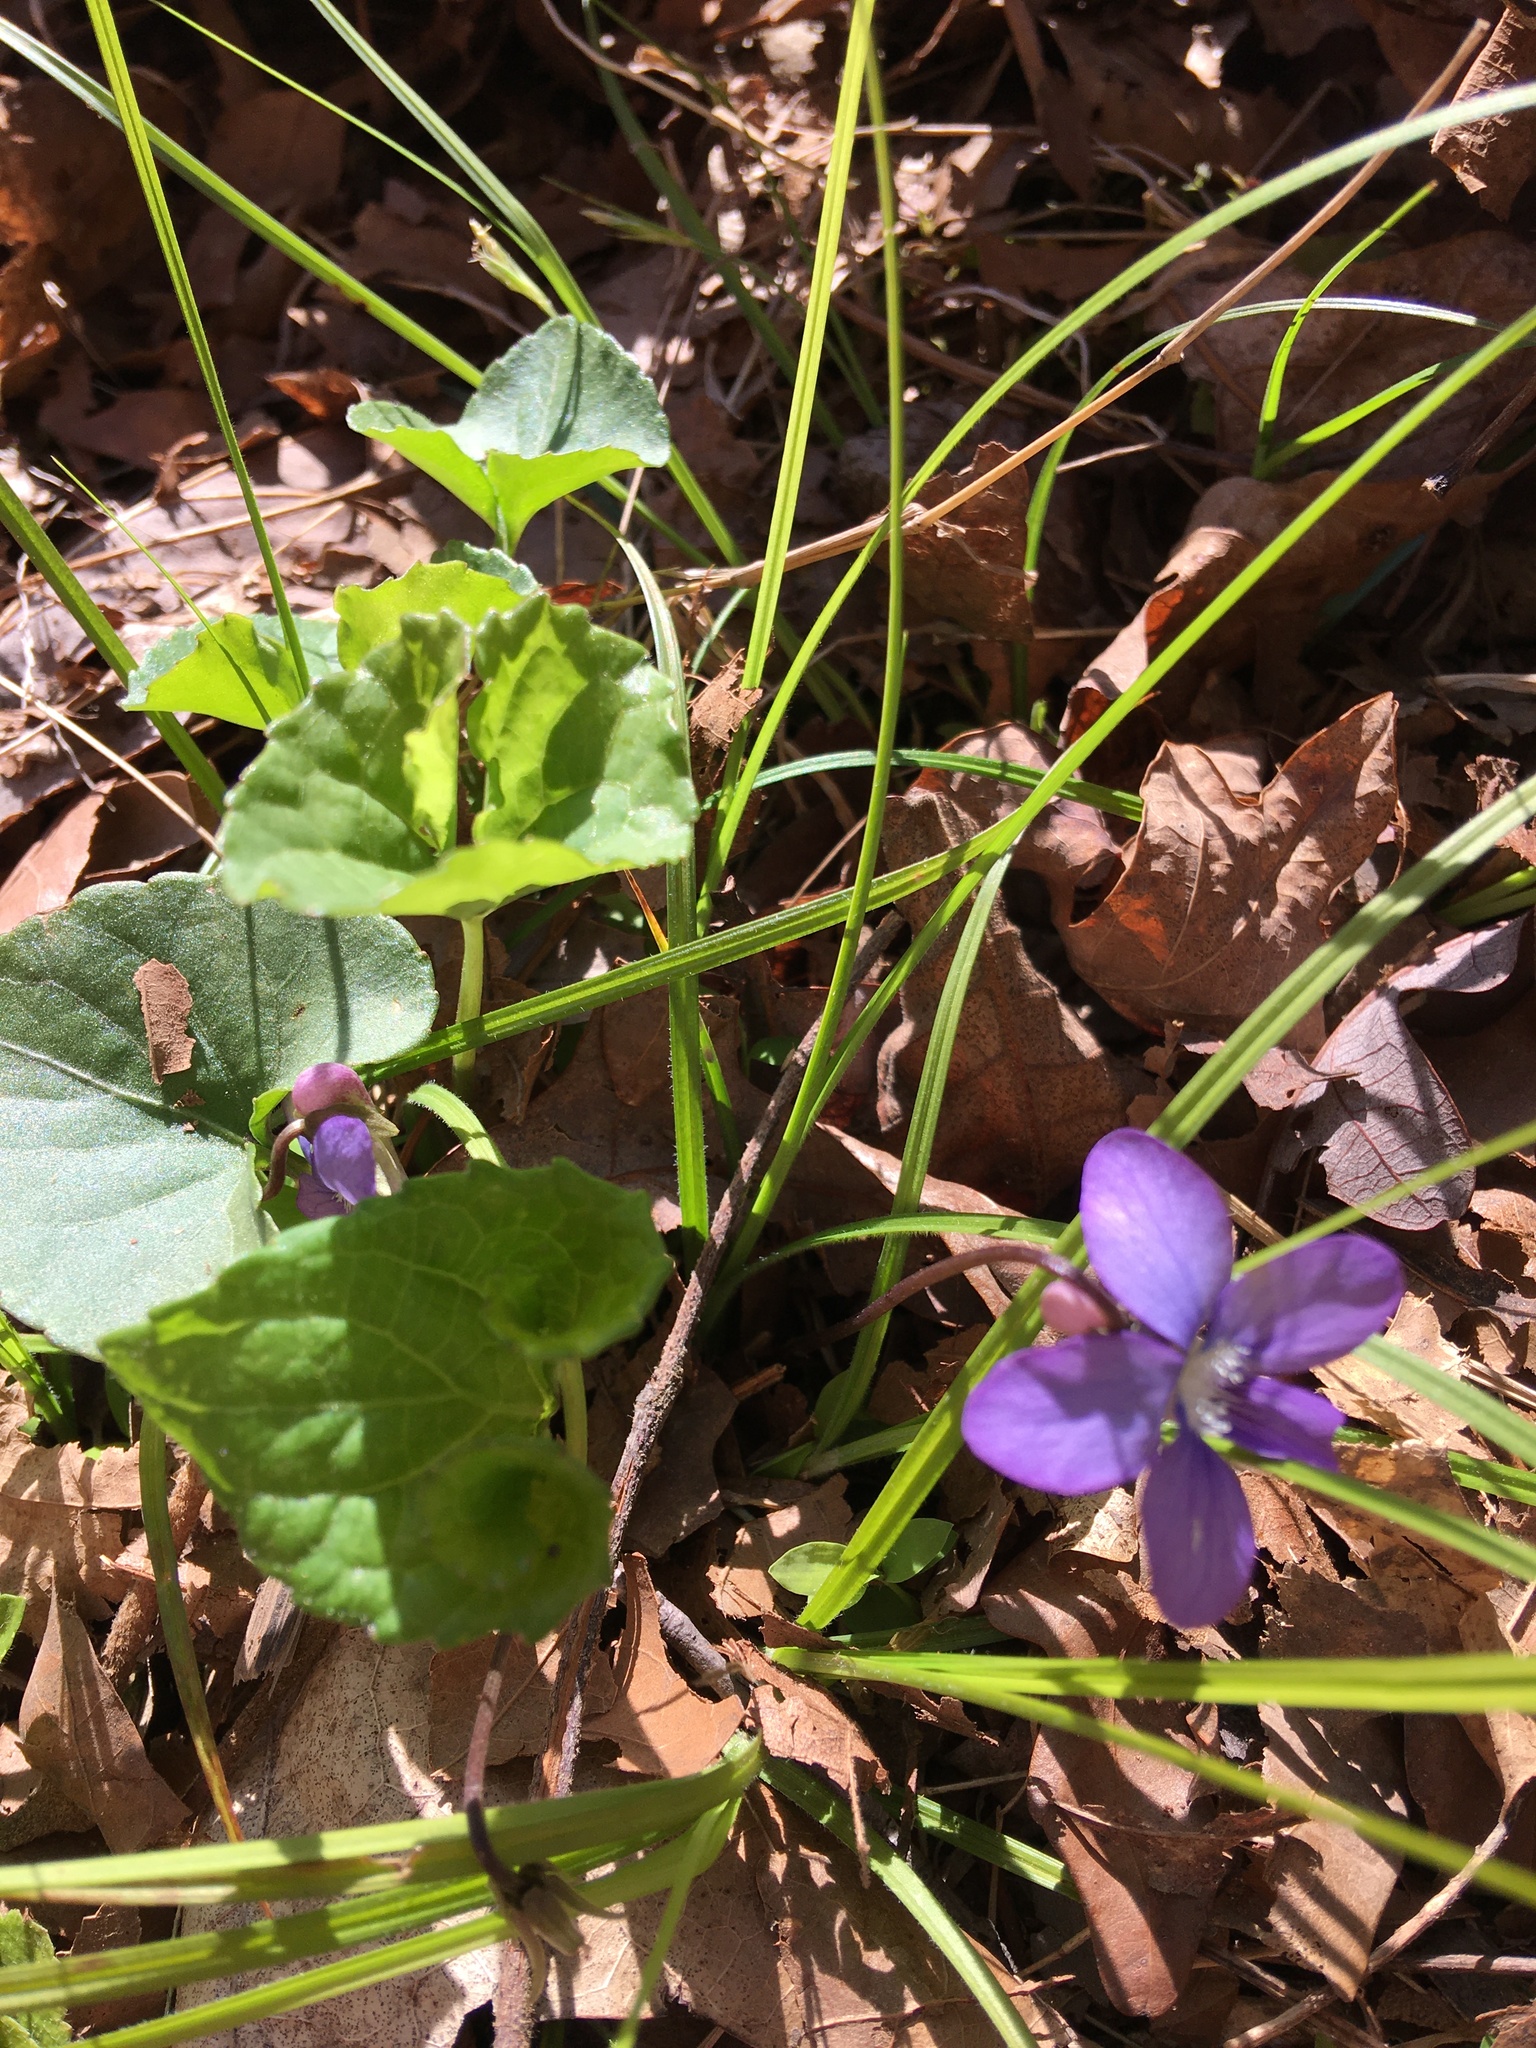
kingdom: Plantae
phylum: Tracheophyta
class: Magnoliopsida
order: Malpighiales
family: Violaceae
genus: Viola
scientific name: Viola sororia
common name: Dooryard violet
